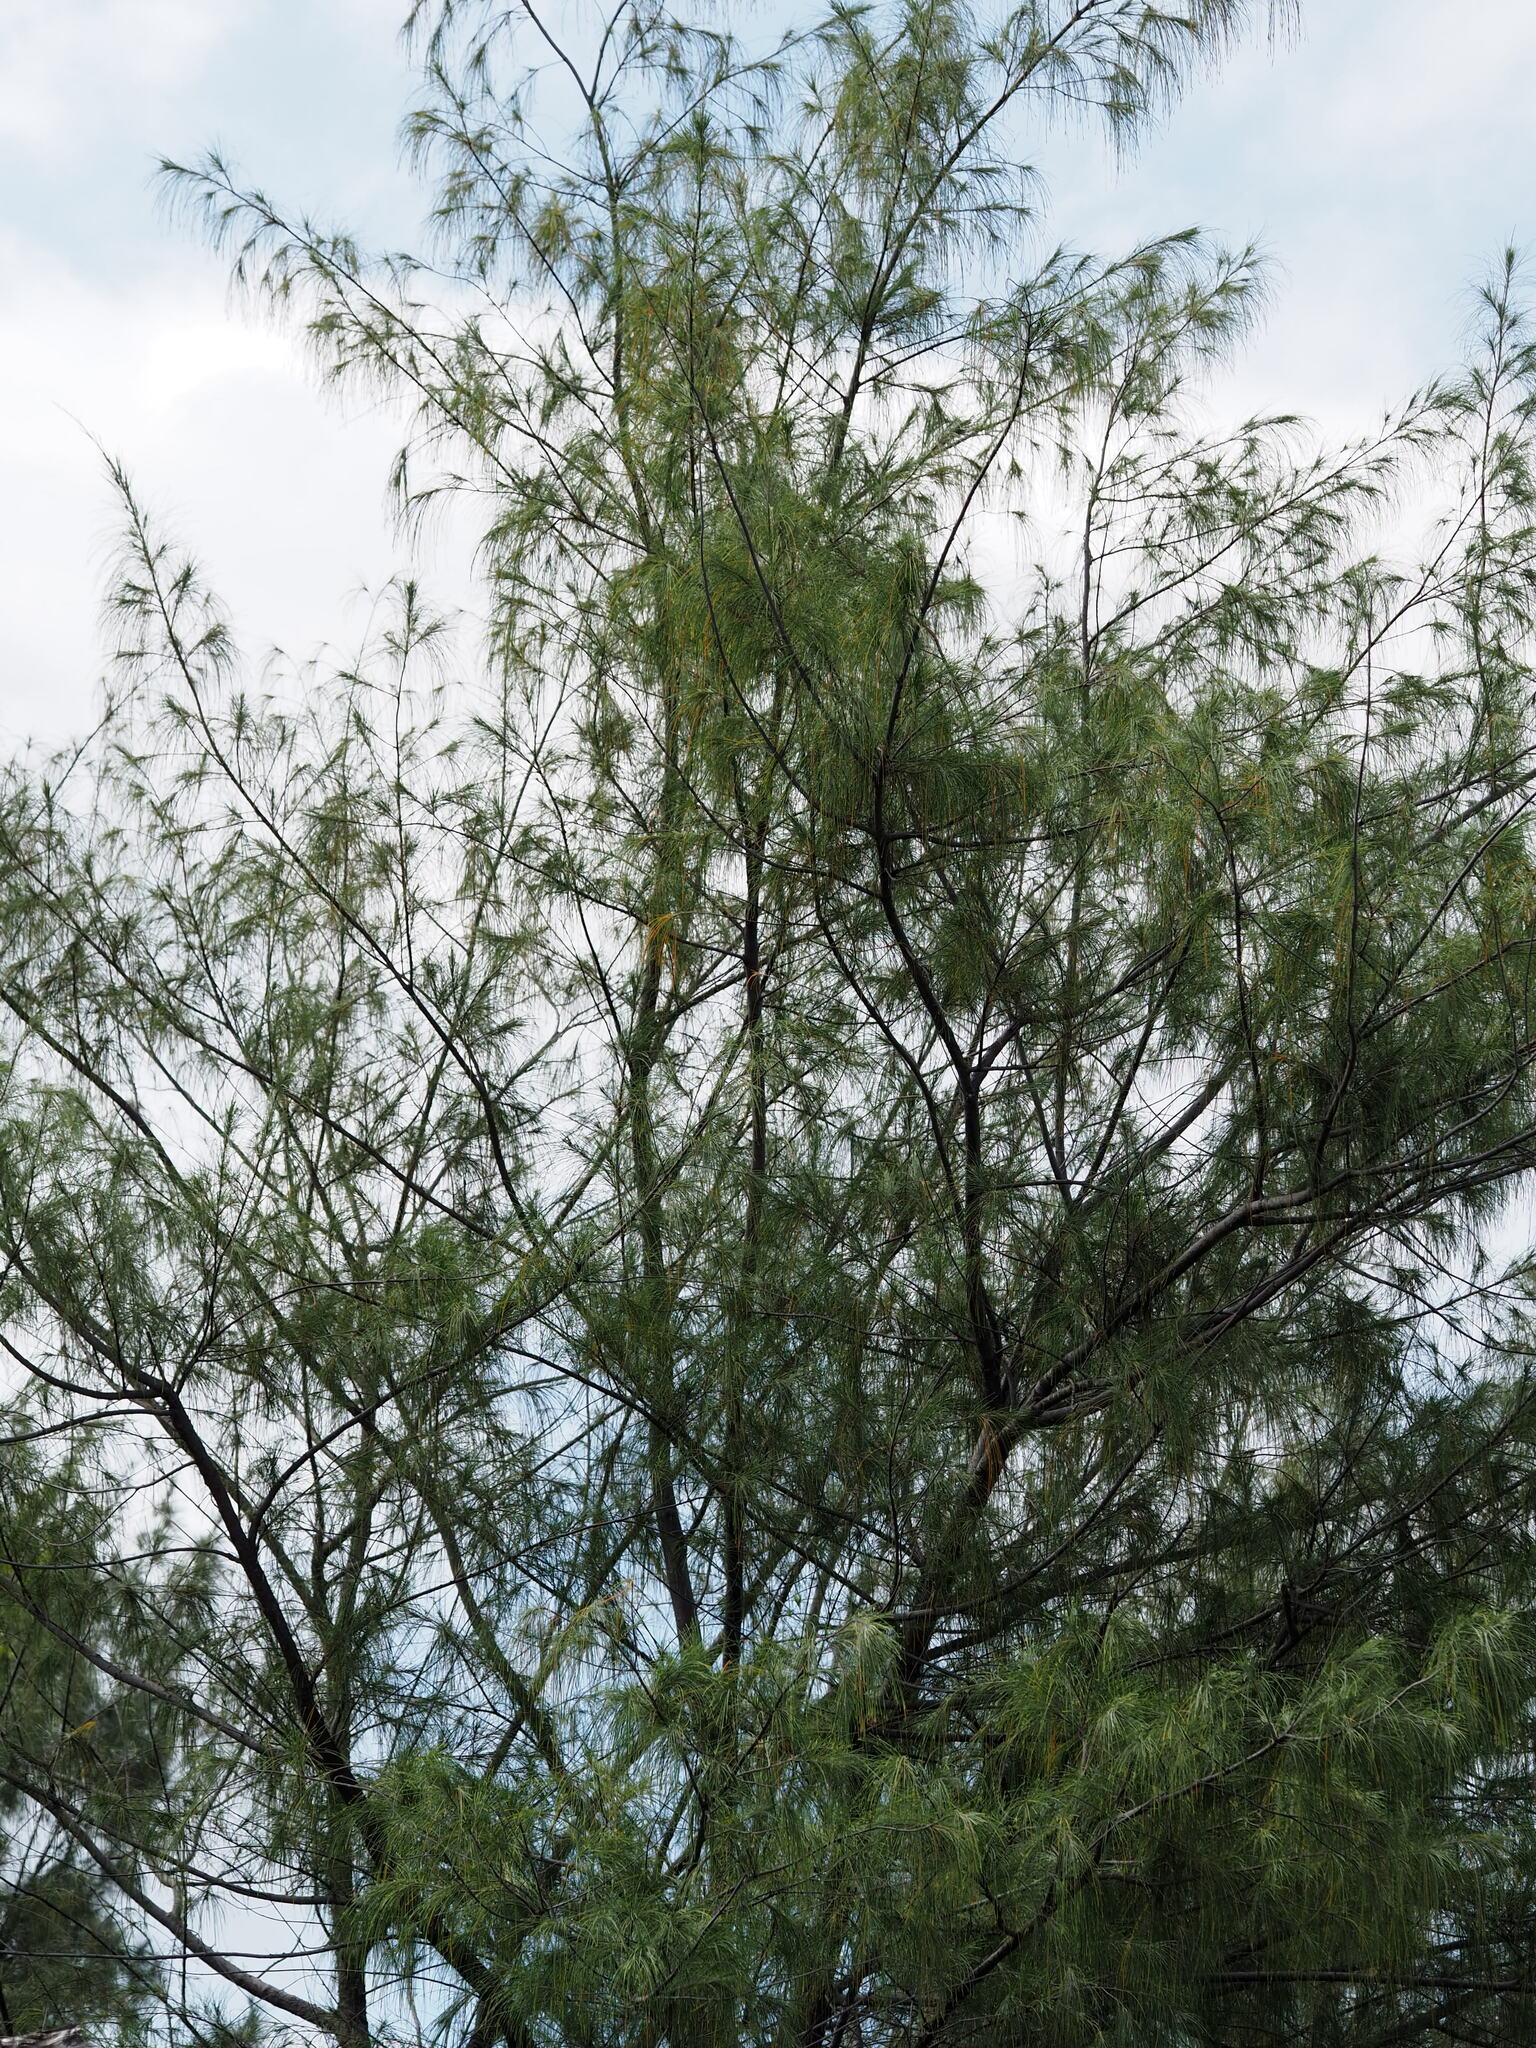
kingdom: Plantae
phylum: Tracheophyta
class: Magnoliopsida
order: Fagales
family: Casuarinaceae
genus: Casuarina
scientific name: Casuarina equisetifolia
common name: Beach sheoak
